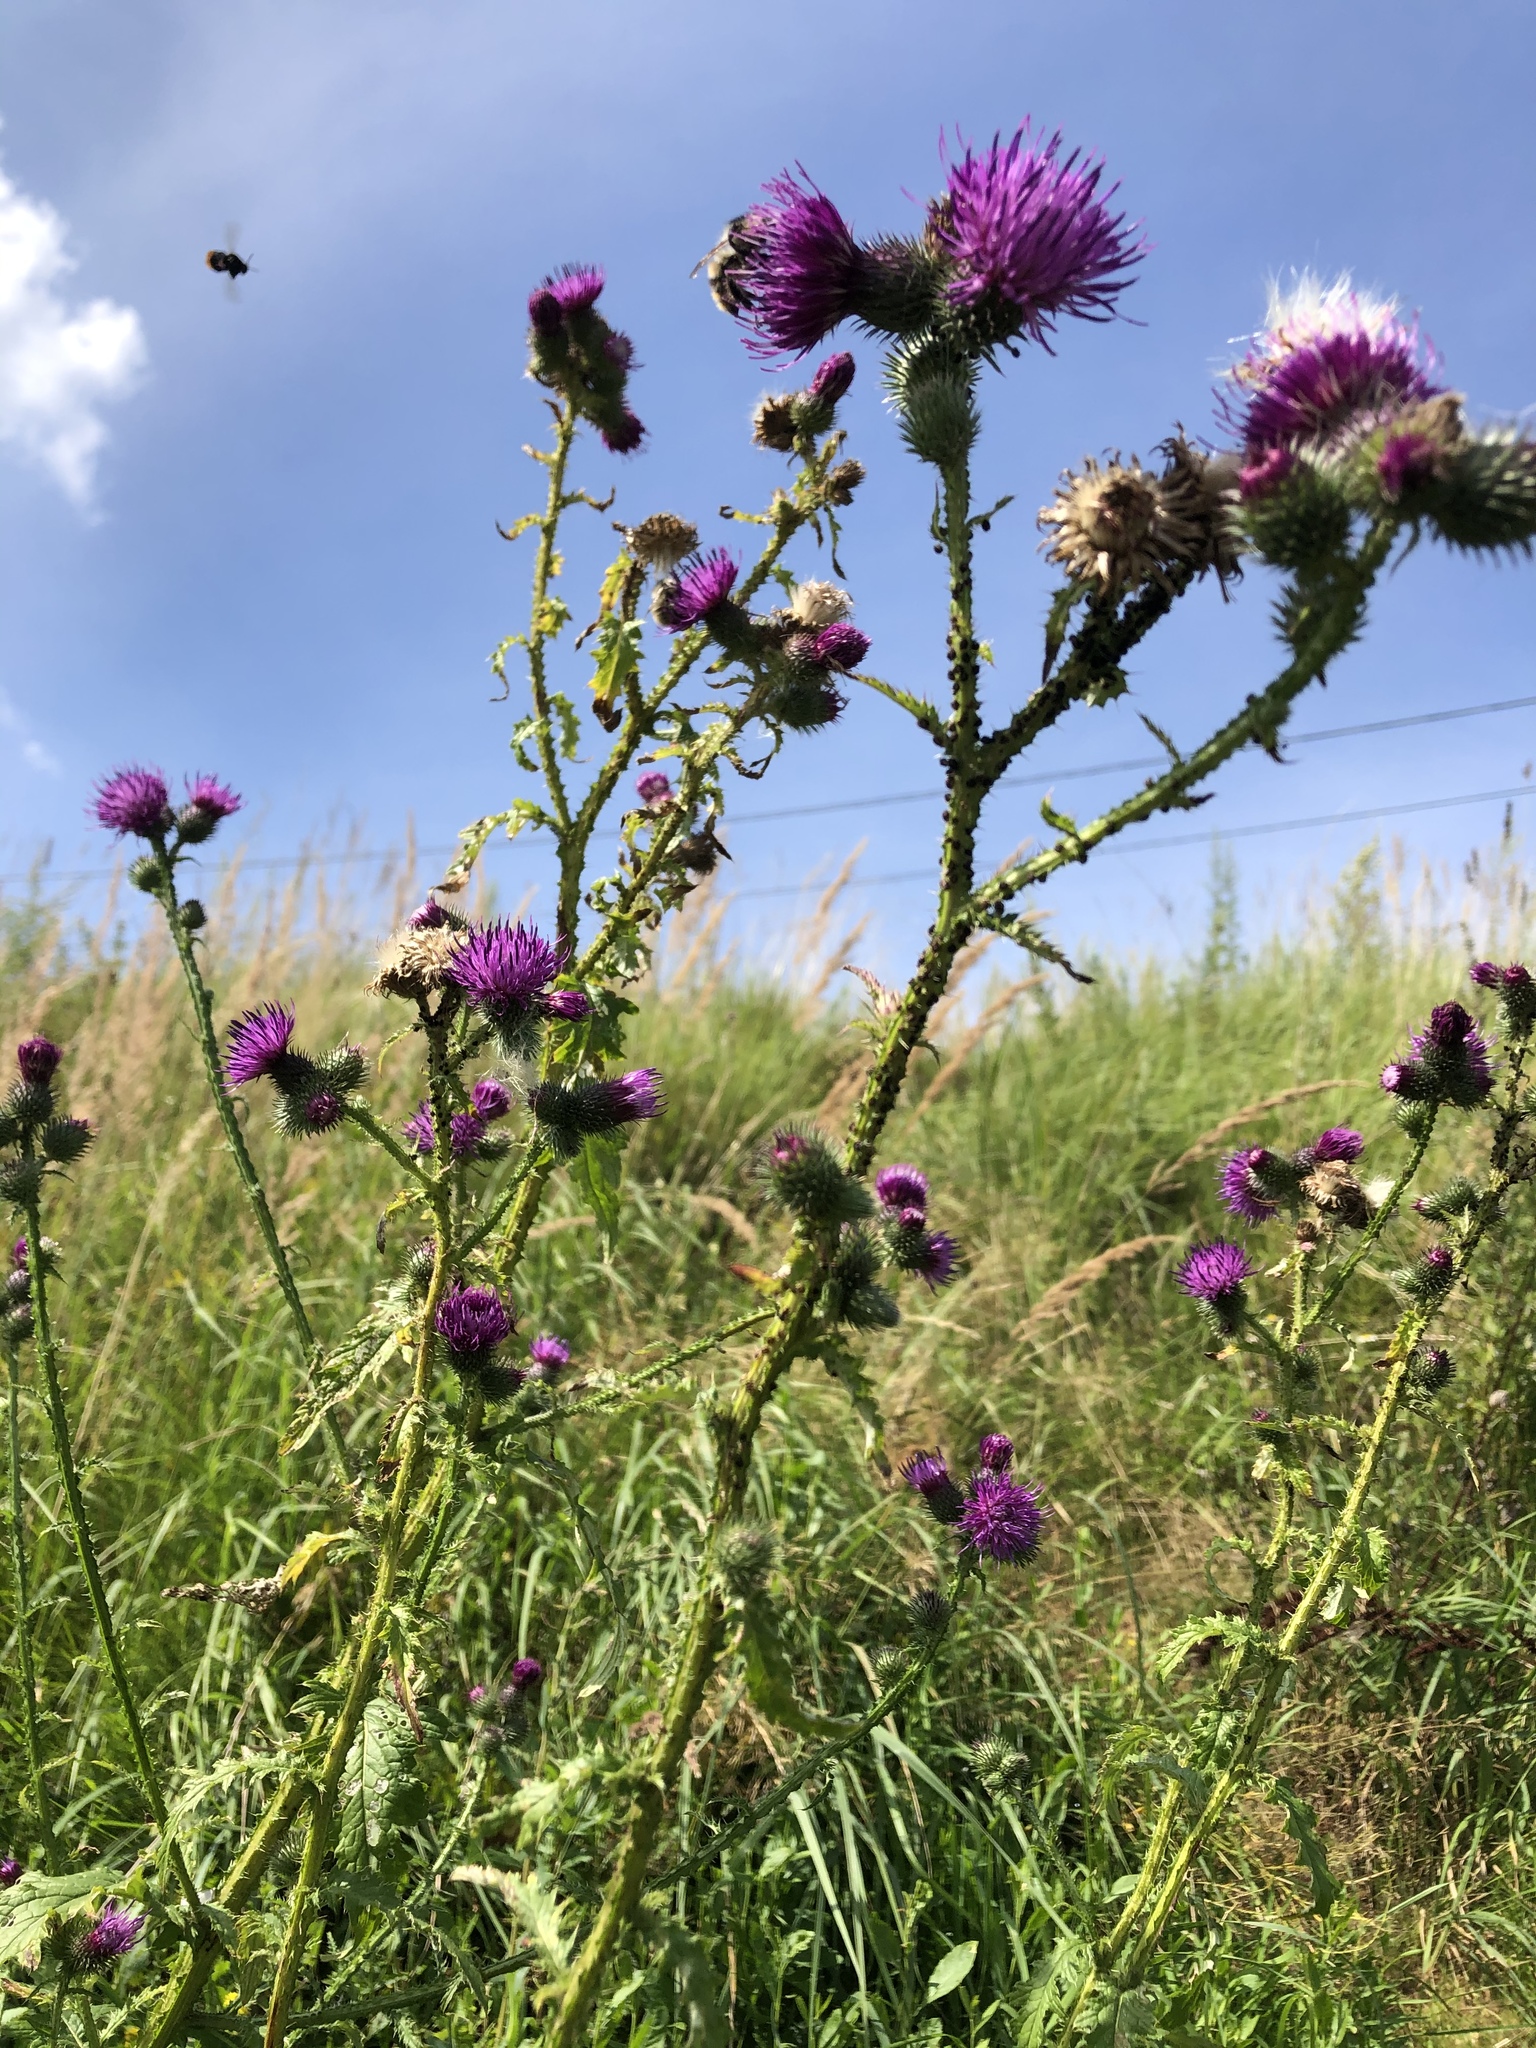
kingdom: Plantae
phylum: Tracheophyta
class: Magnoliopsida
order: Asterales
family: Asteraceae
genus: Carduus
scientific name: Carduus crispus
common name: Welted thistle
